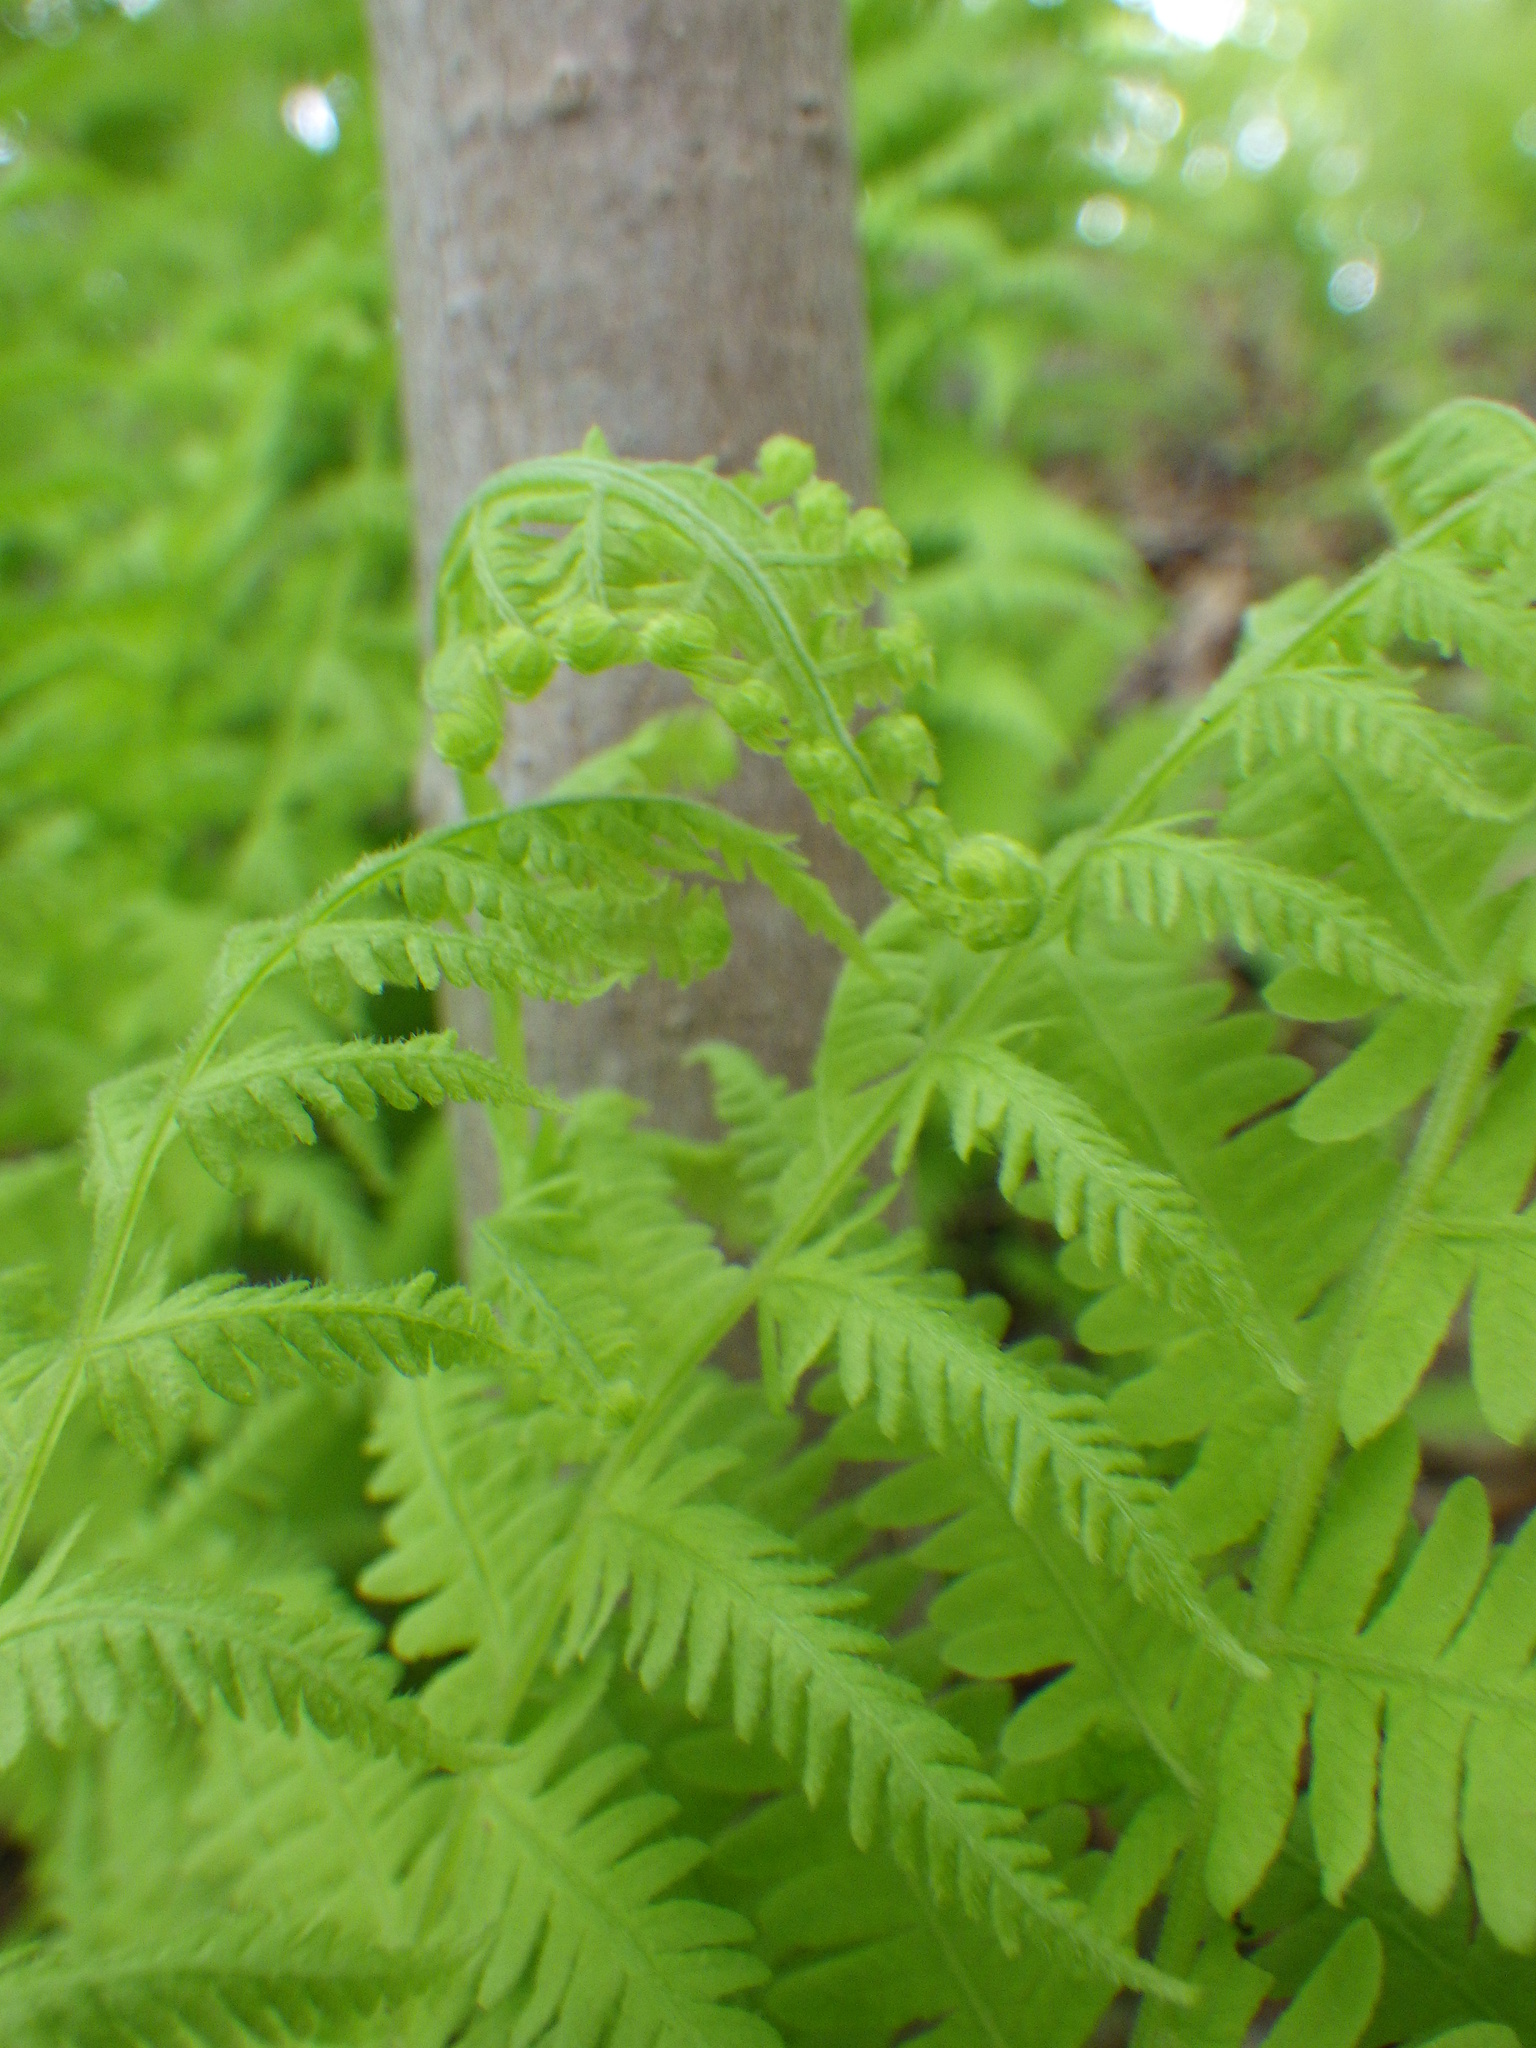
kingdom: Plantae
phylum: Tracheophyta
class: Polypodiopsida
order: Polypodiales
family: Thelypteridaceae
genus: Amauropelta
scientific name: Amauropelta noveboracensis
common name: New york fern
